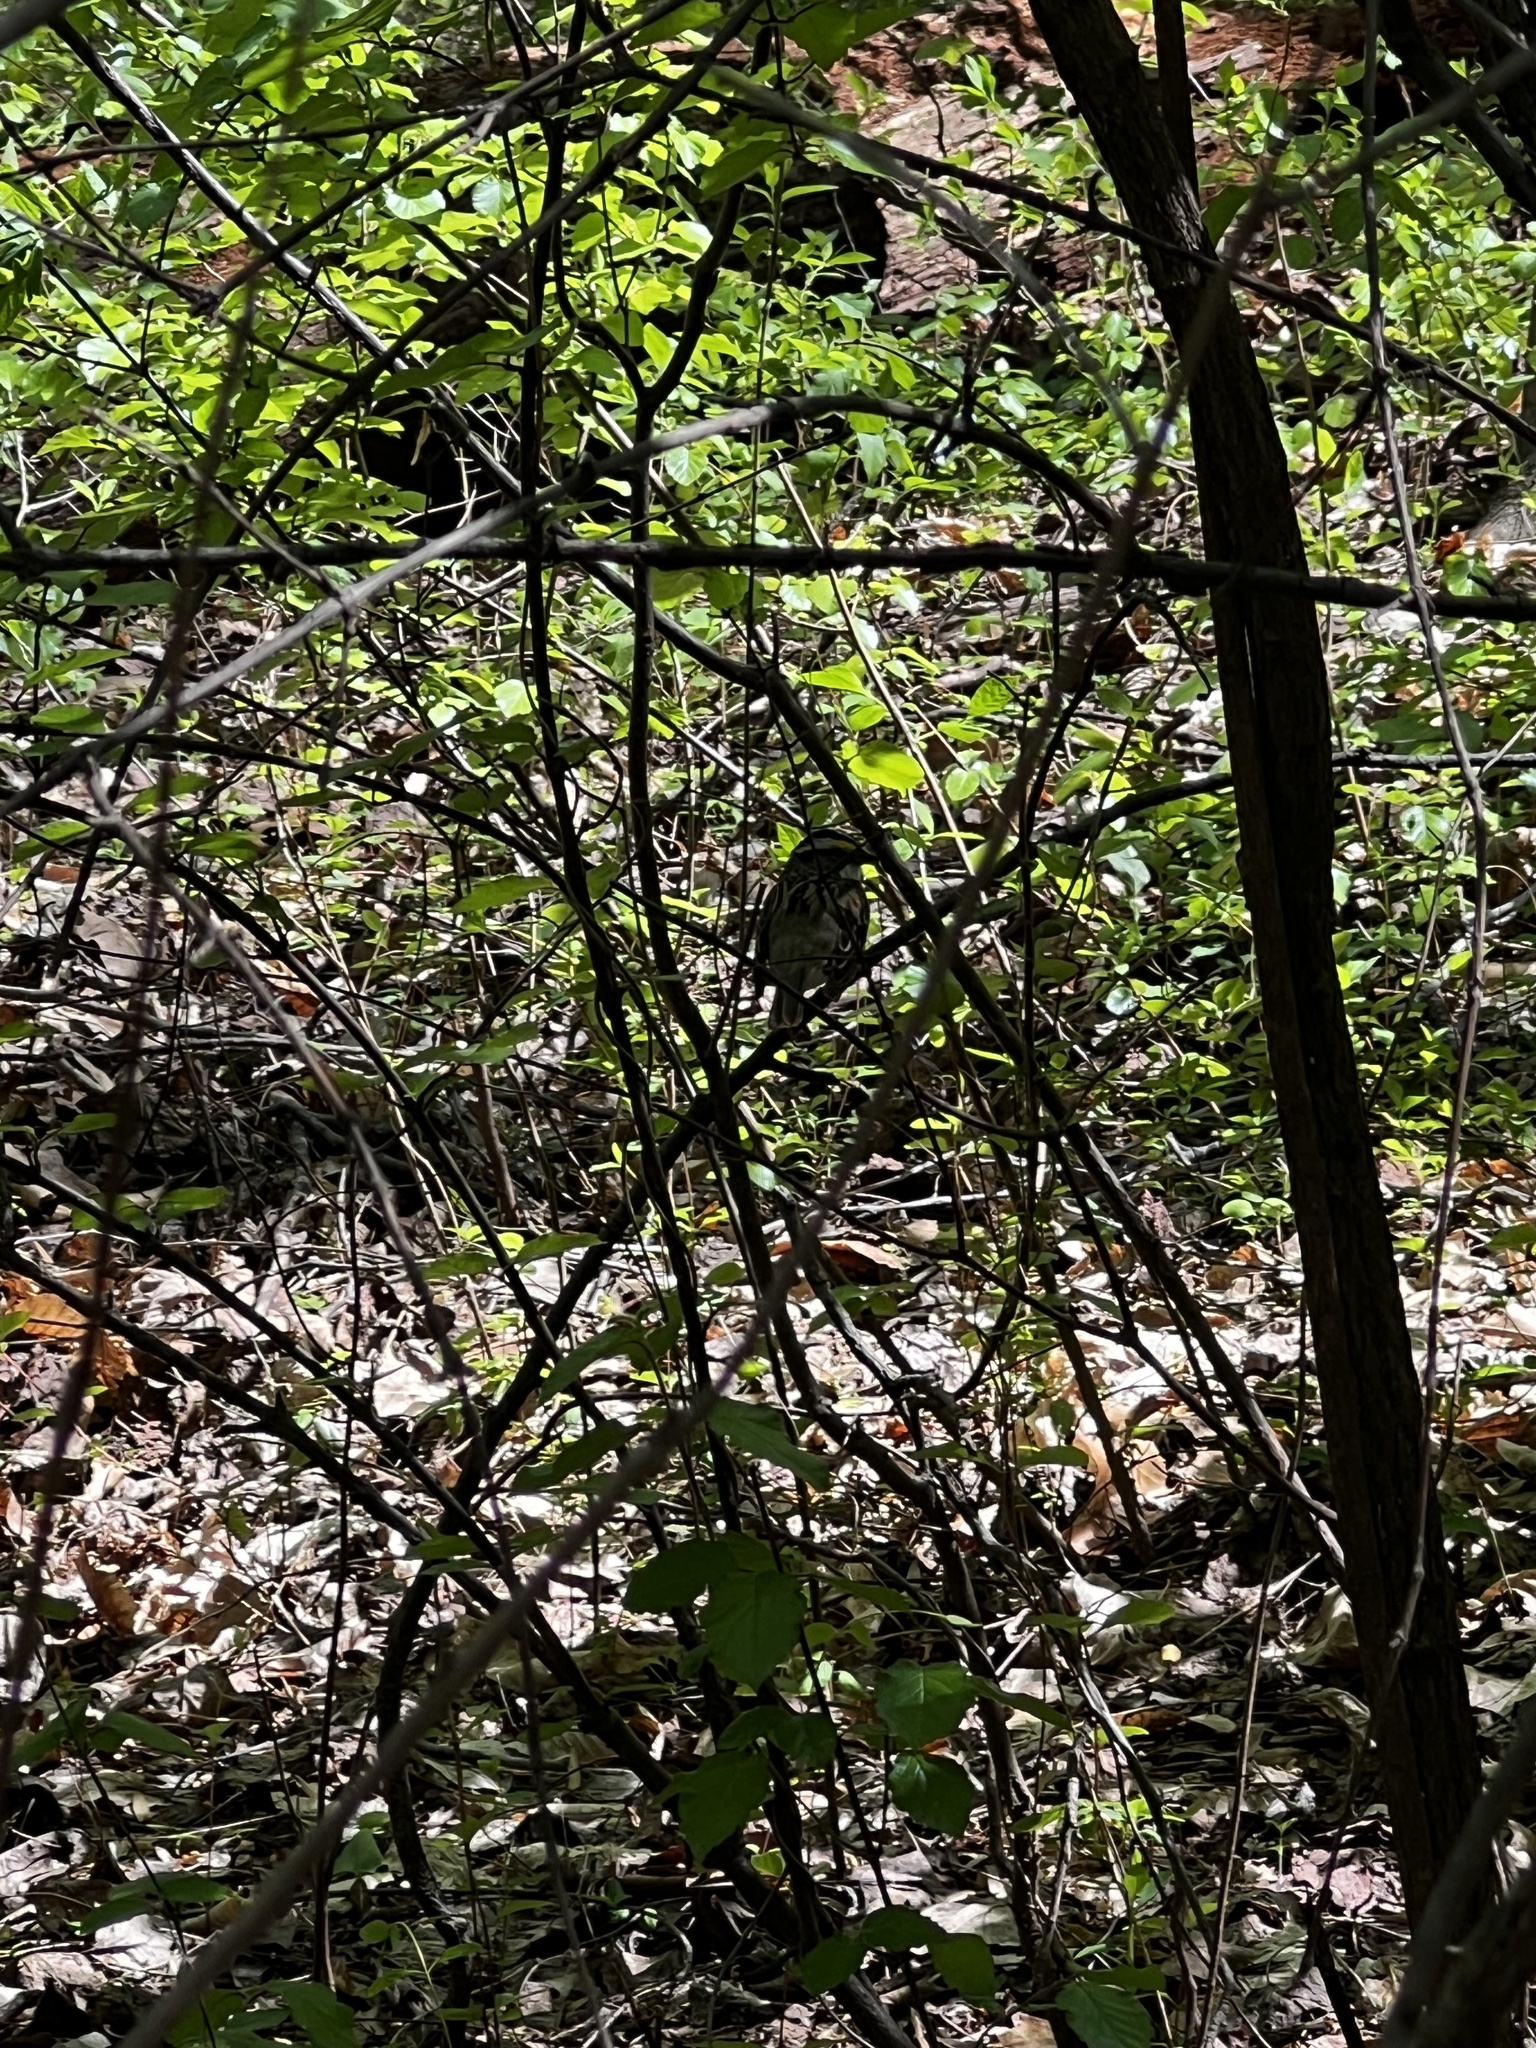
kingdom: Animalia
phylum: Chordata
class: Aves
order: Passeriformes
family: Passerellidae
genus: Zonotrichia
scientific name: Zonotrichia albicollis
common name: White-throated sparrow
